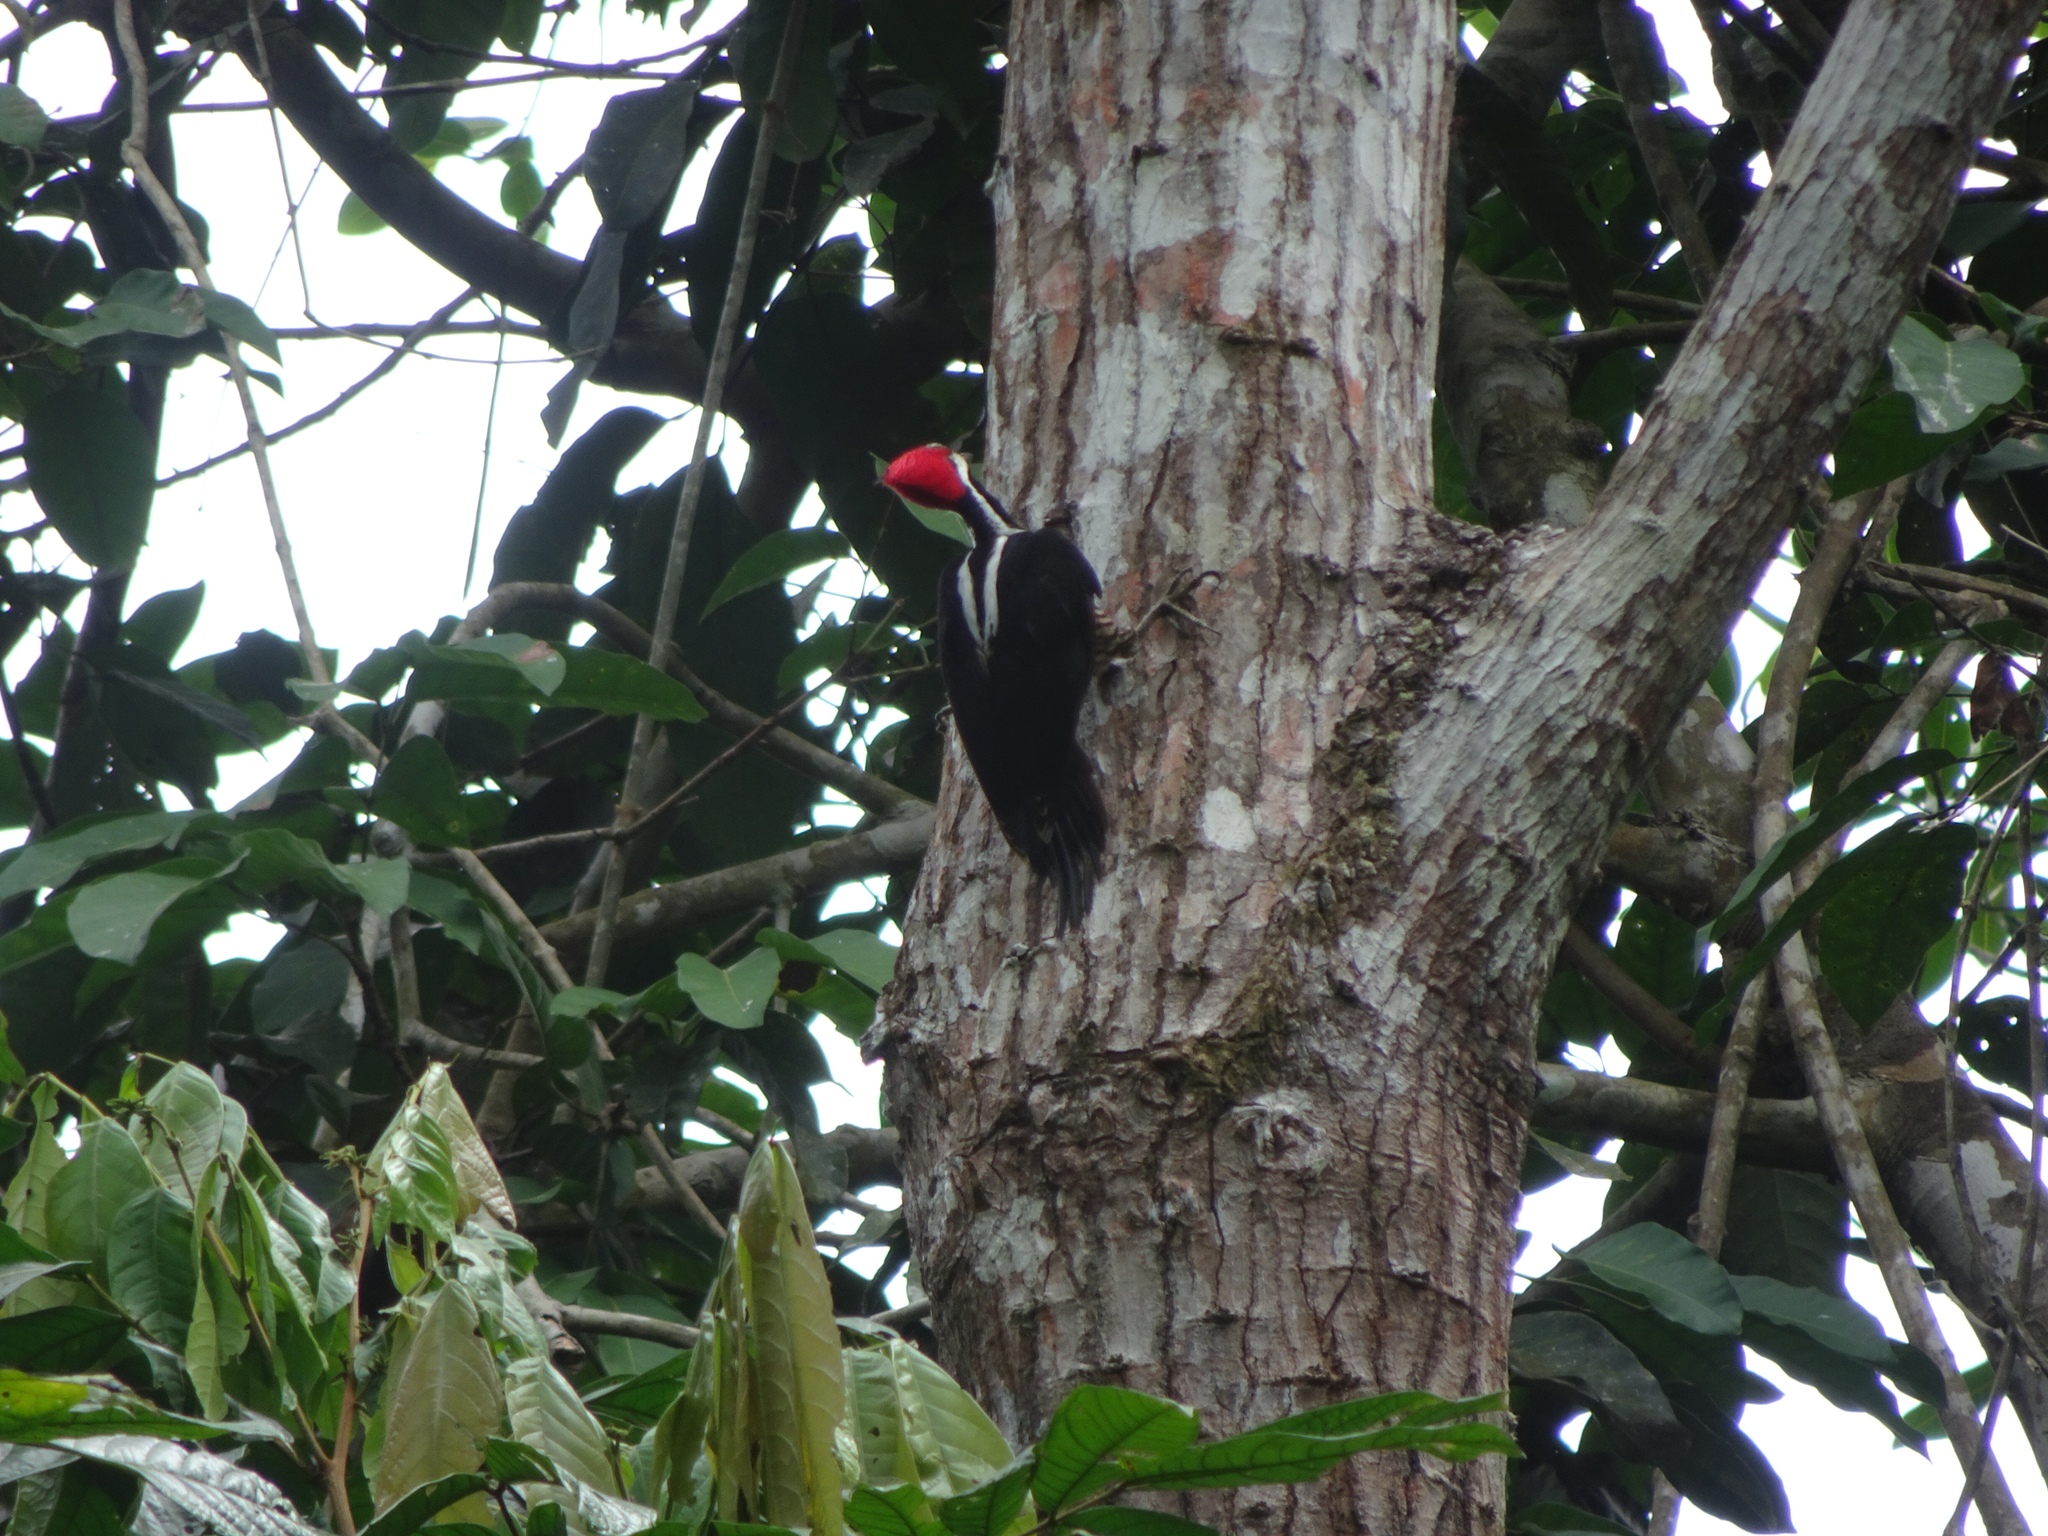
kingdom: Animalia
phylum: Chordata
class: Aves
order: Piciformes
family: Picidae
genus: Campephilus
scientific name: Campephilus melanoleucos
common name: Crimson-crested woodpecker
